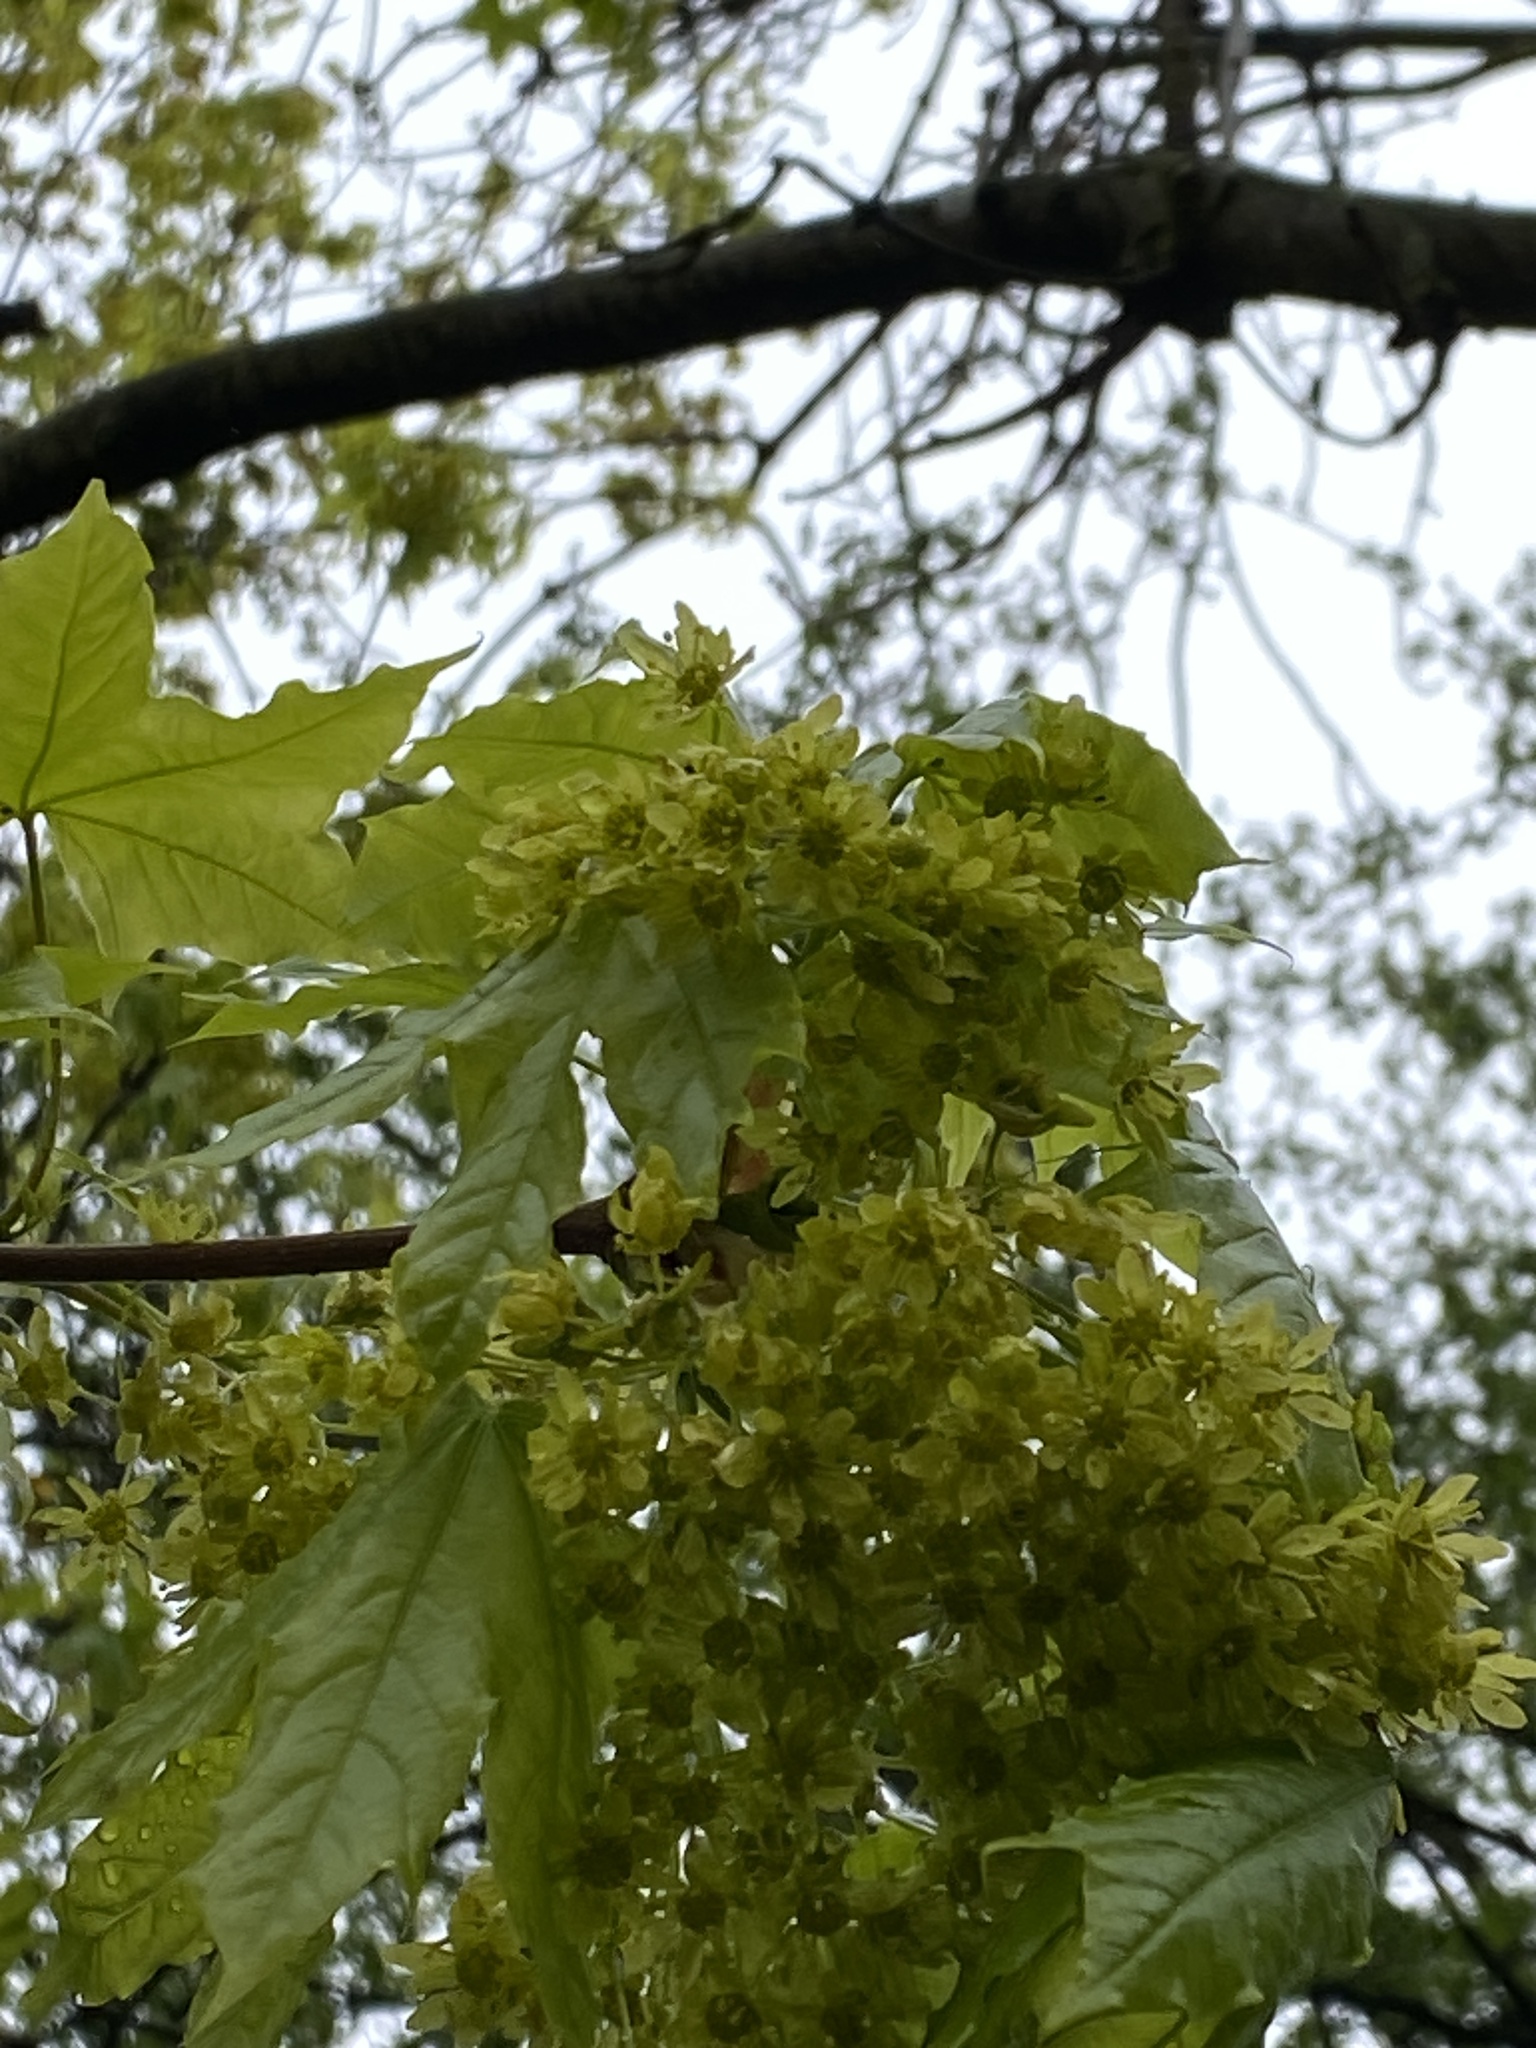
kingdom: Plantae
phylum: Tracheophyta
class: Magnoliopsida
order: Sapindales
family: Sapindaceae
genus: Acer
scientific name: Acer platanoides
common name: Norway maple
